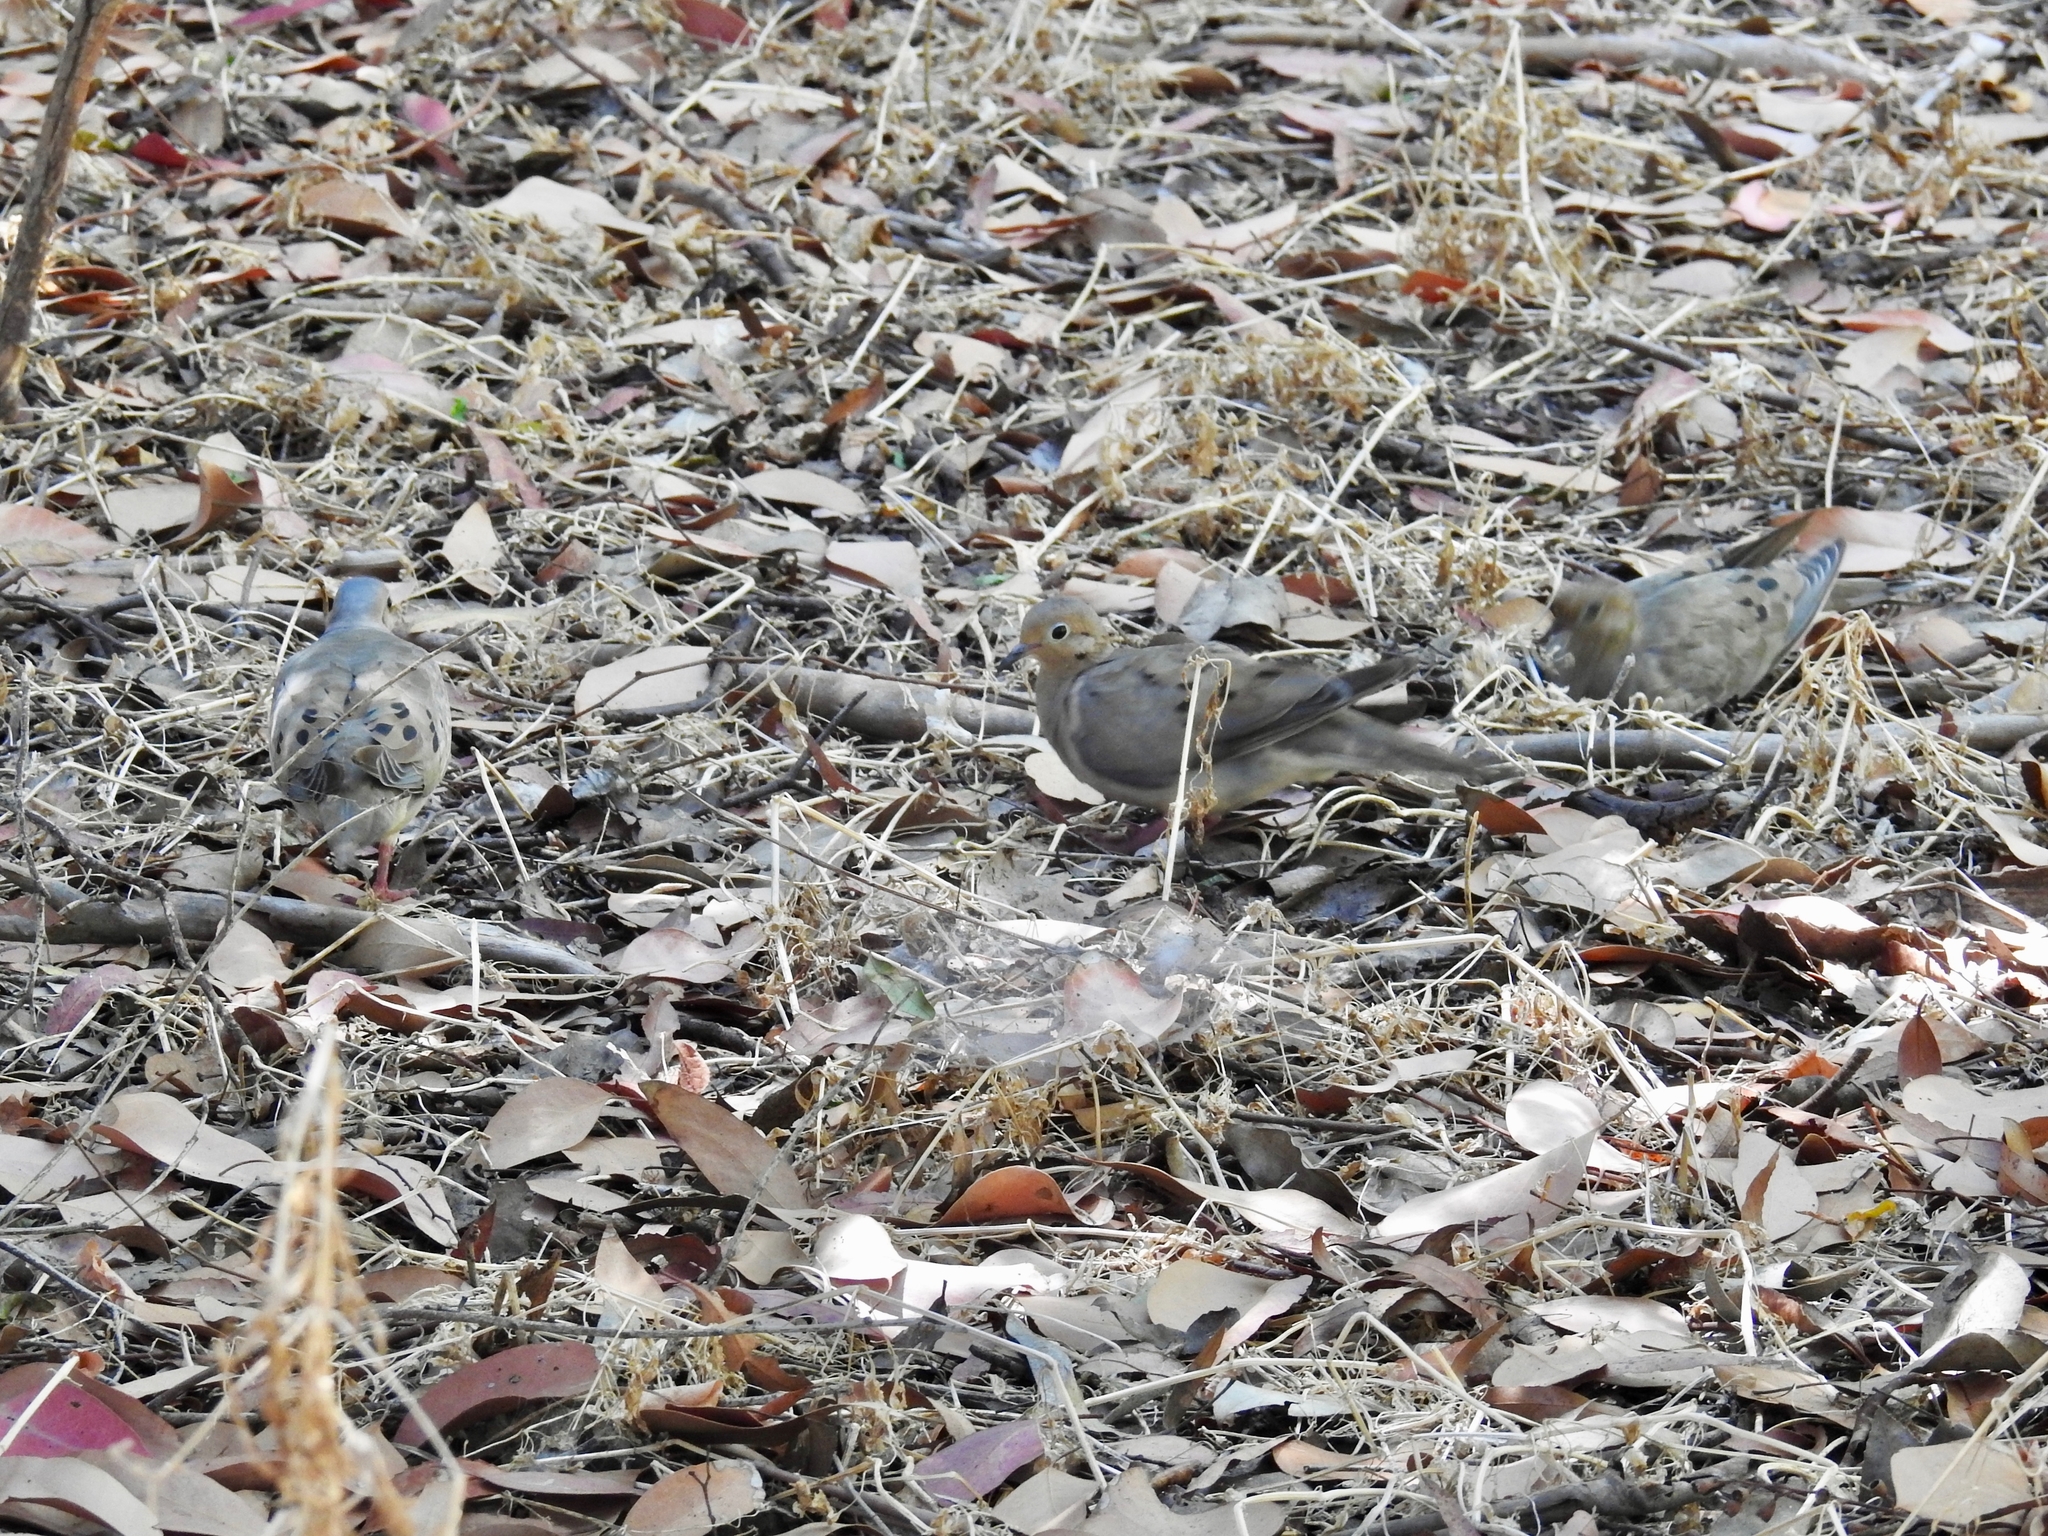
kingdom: Animalia
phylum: Chordata
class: Aves
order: Columbiformes
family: Columbidae
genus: Zenaida
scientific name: Zenaida macroura
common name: Mourning dove
